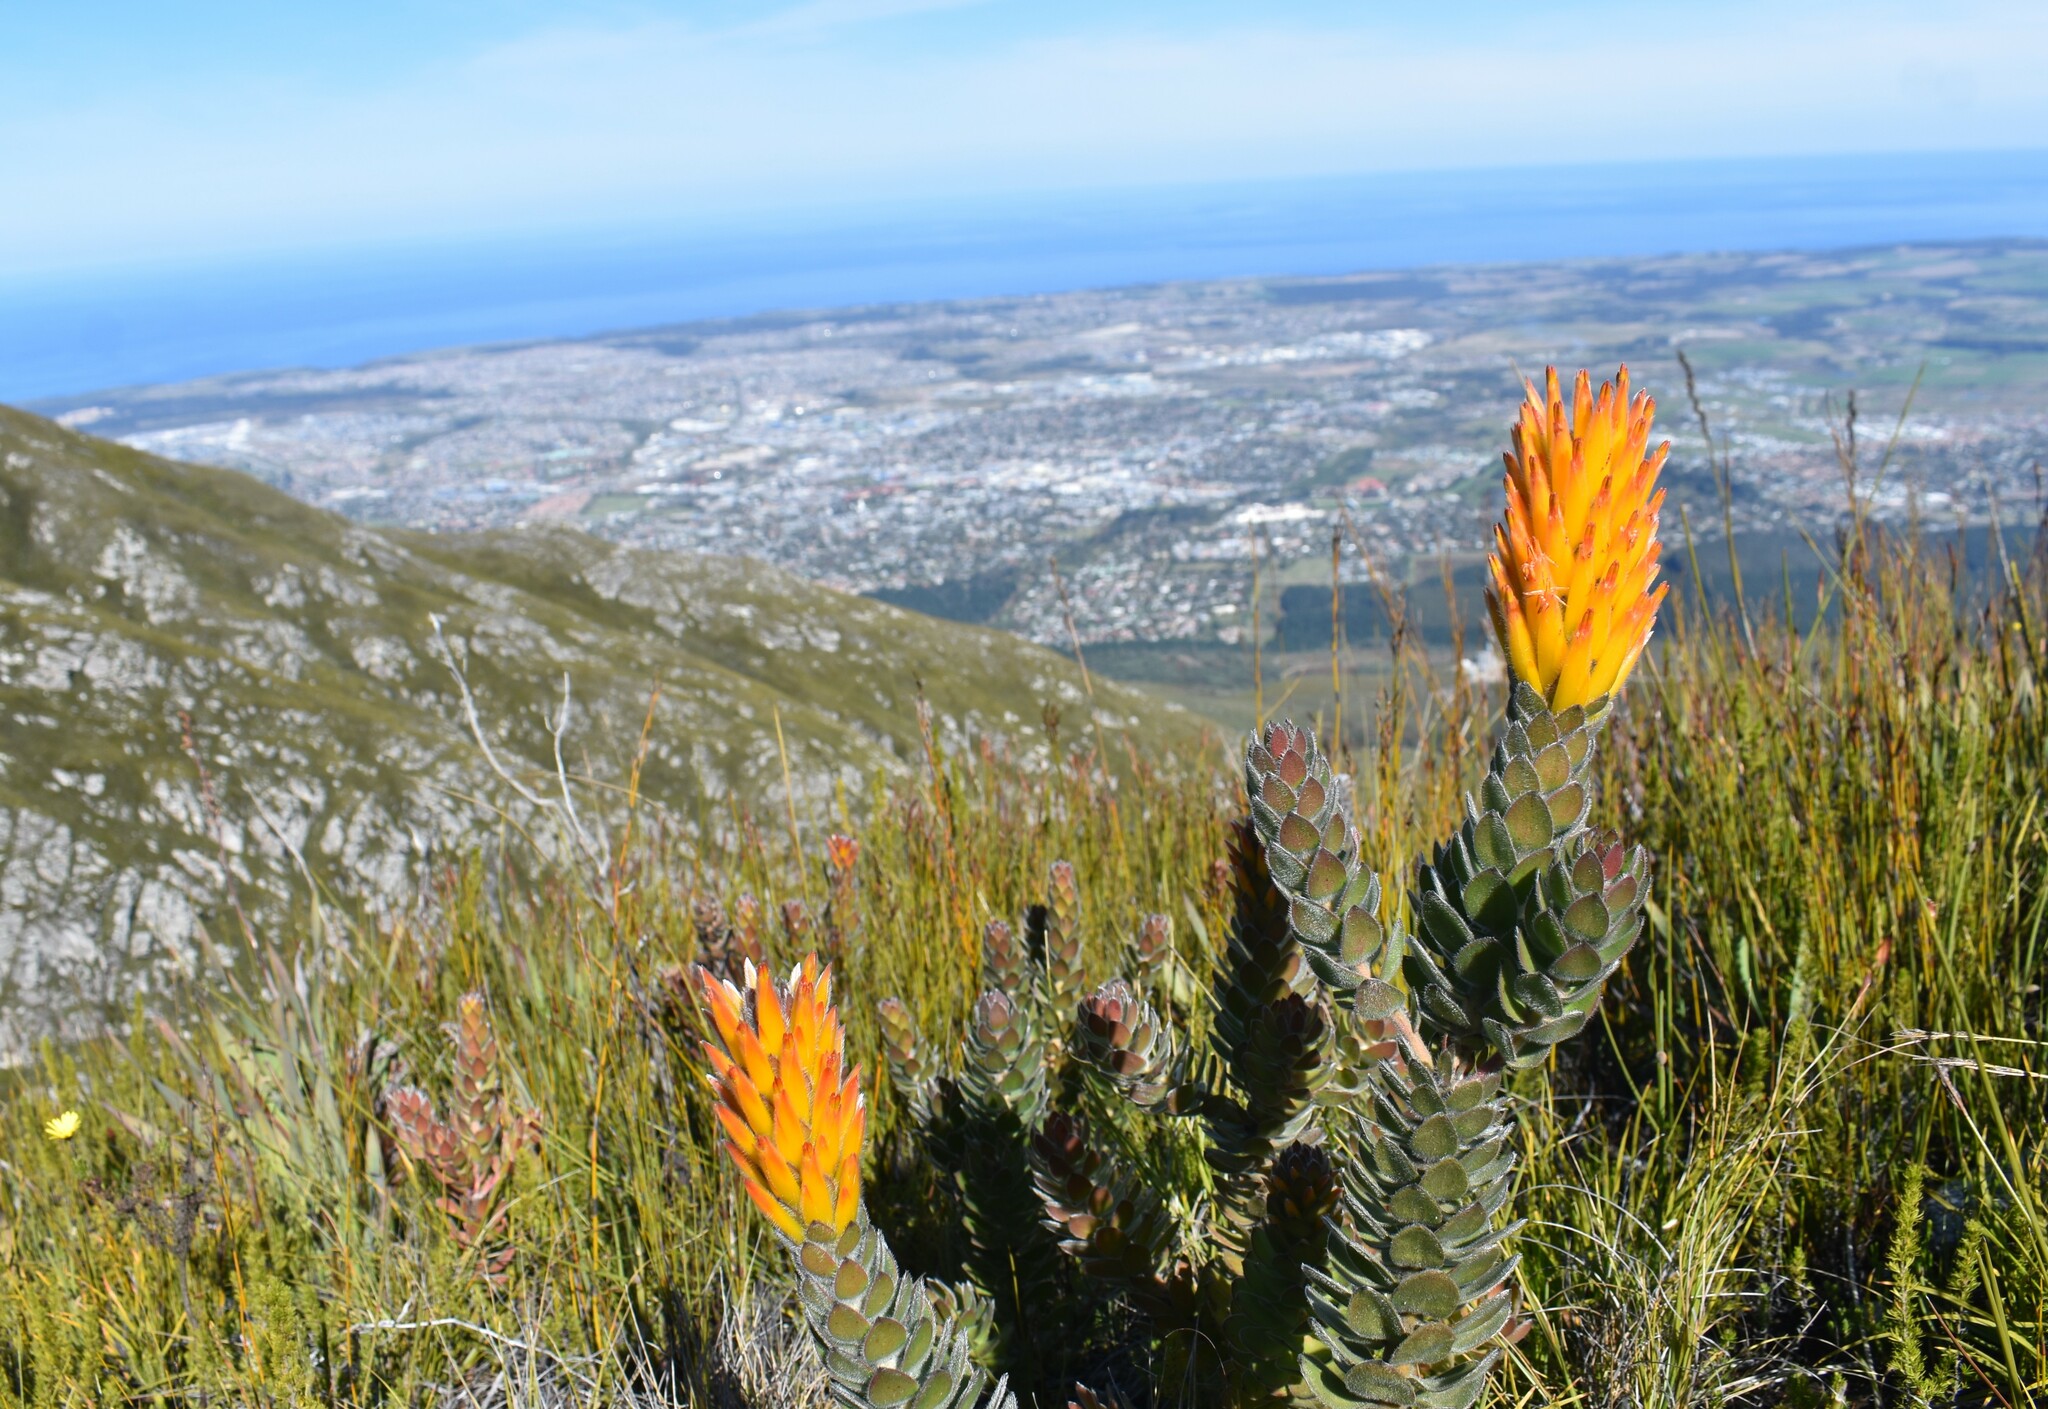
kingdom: Plantae
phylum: Tracheophyta
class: Magnoliopsida
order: Proteales
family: Proteaceae
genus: Mimetes
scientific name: Mimetes pauciflora
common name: Three-flowered pagoda
